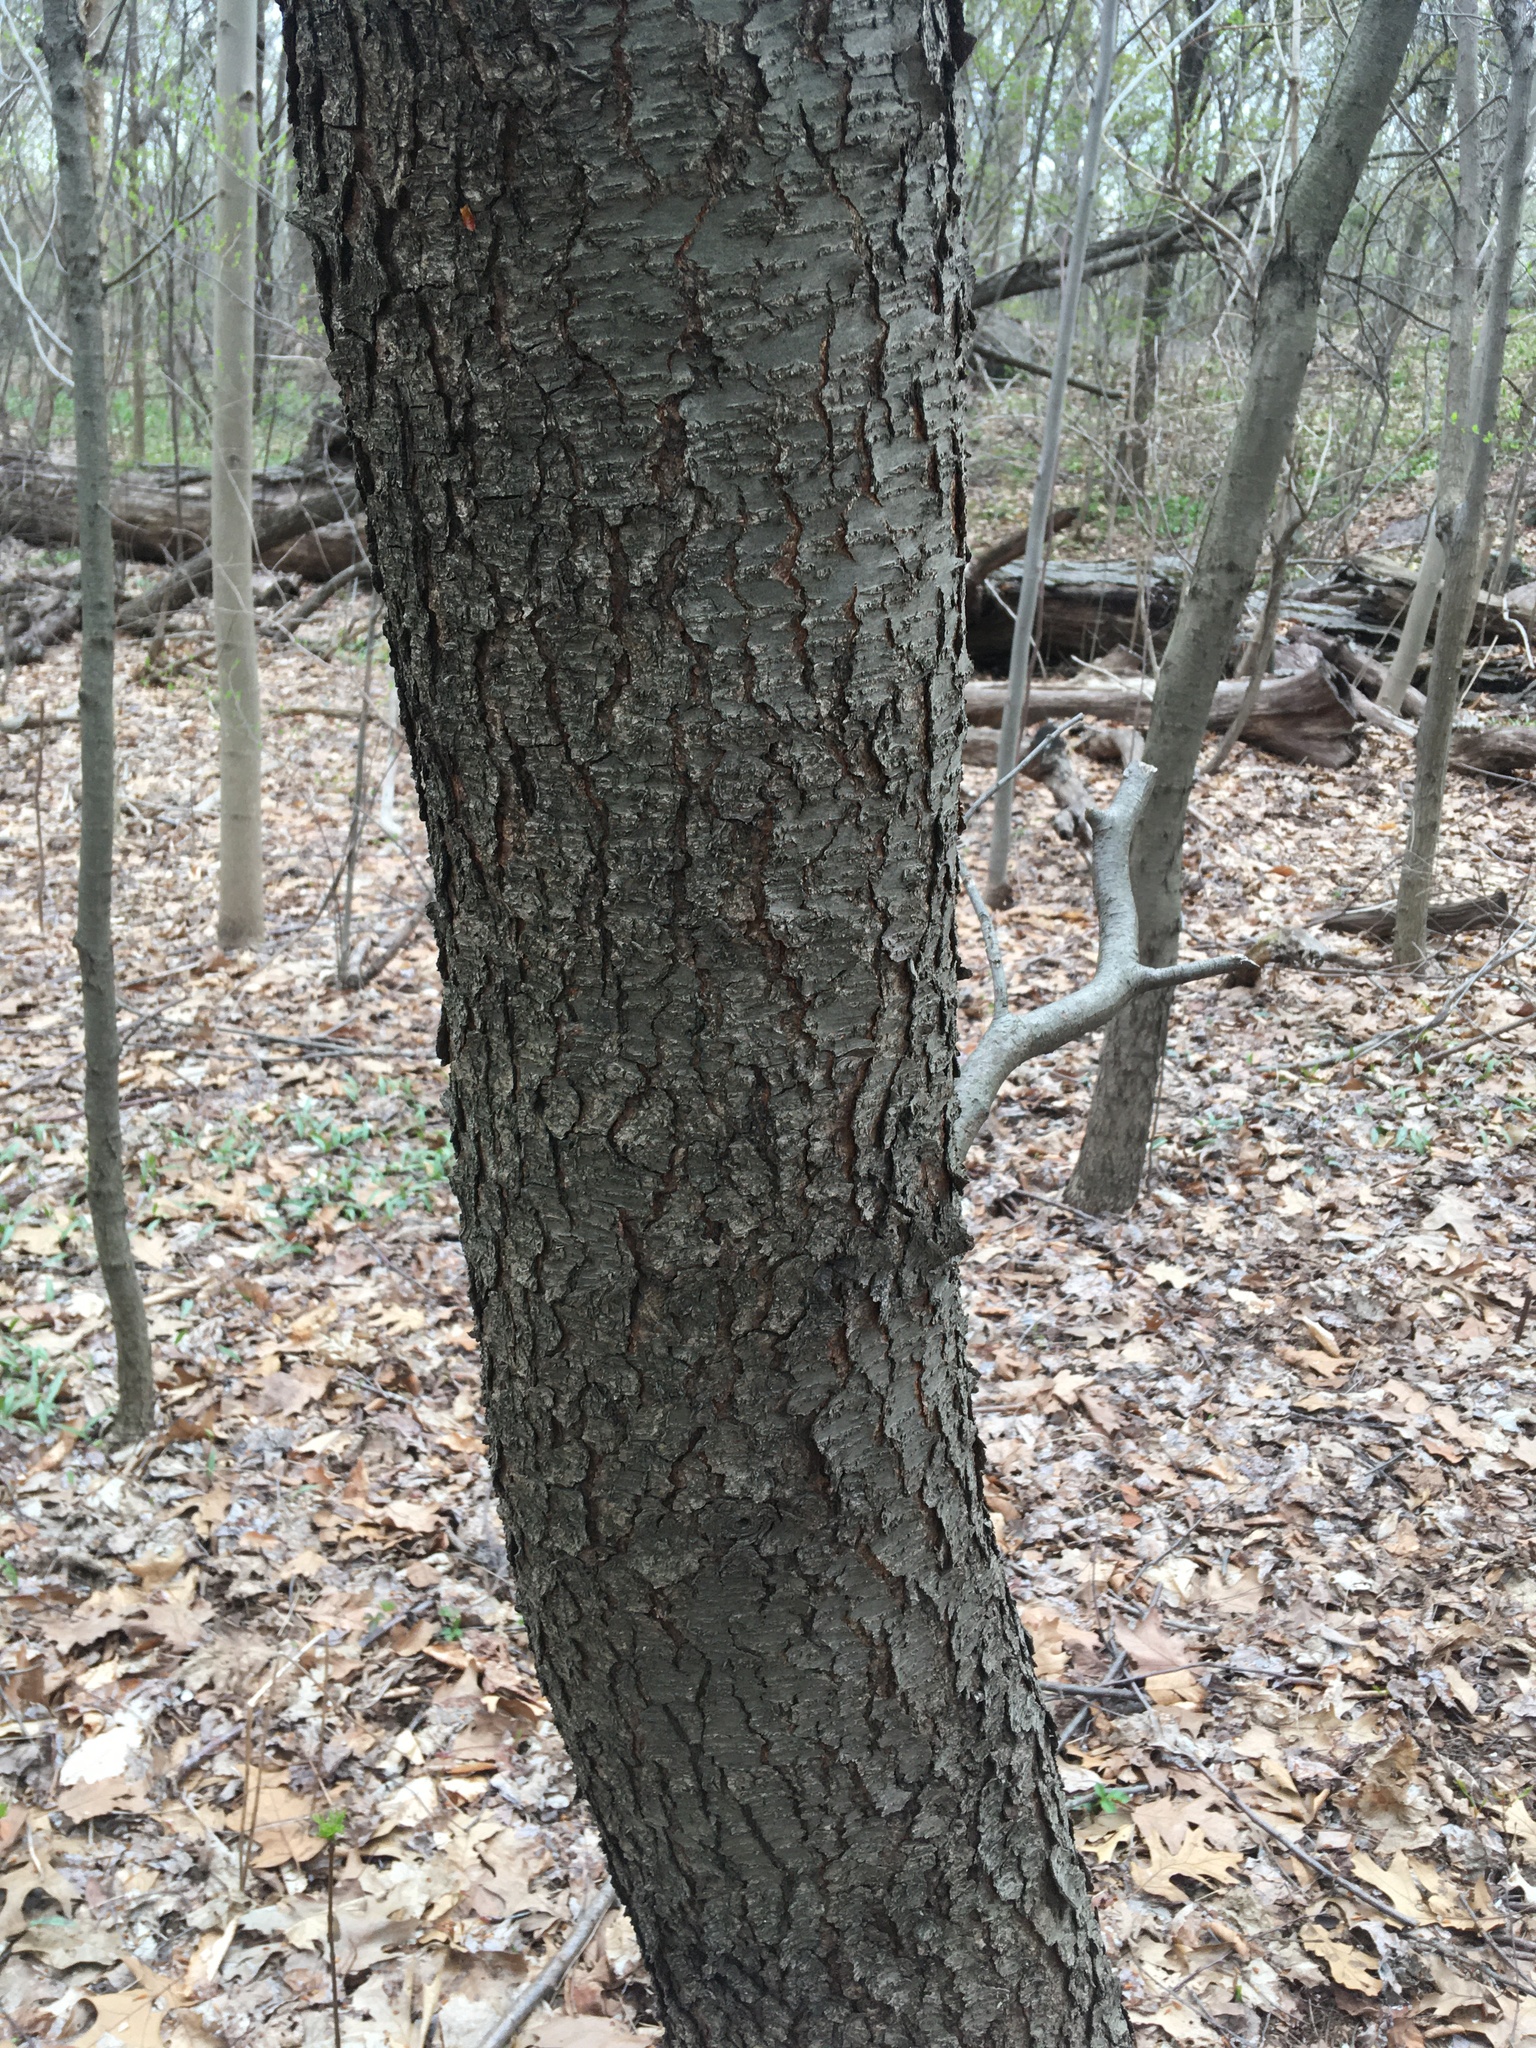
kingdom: Plantae
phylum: Tracheophyta
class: Magnoliopsida
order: Rosales
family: Rosaceae
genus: Prunus
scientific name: Prunus serotina
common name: Black cherry
